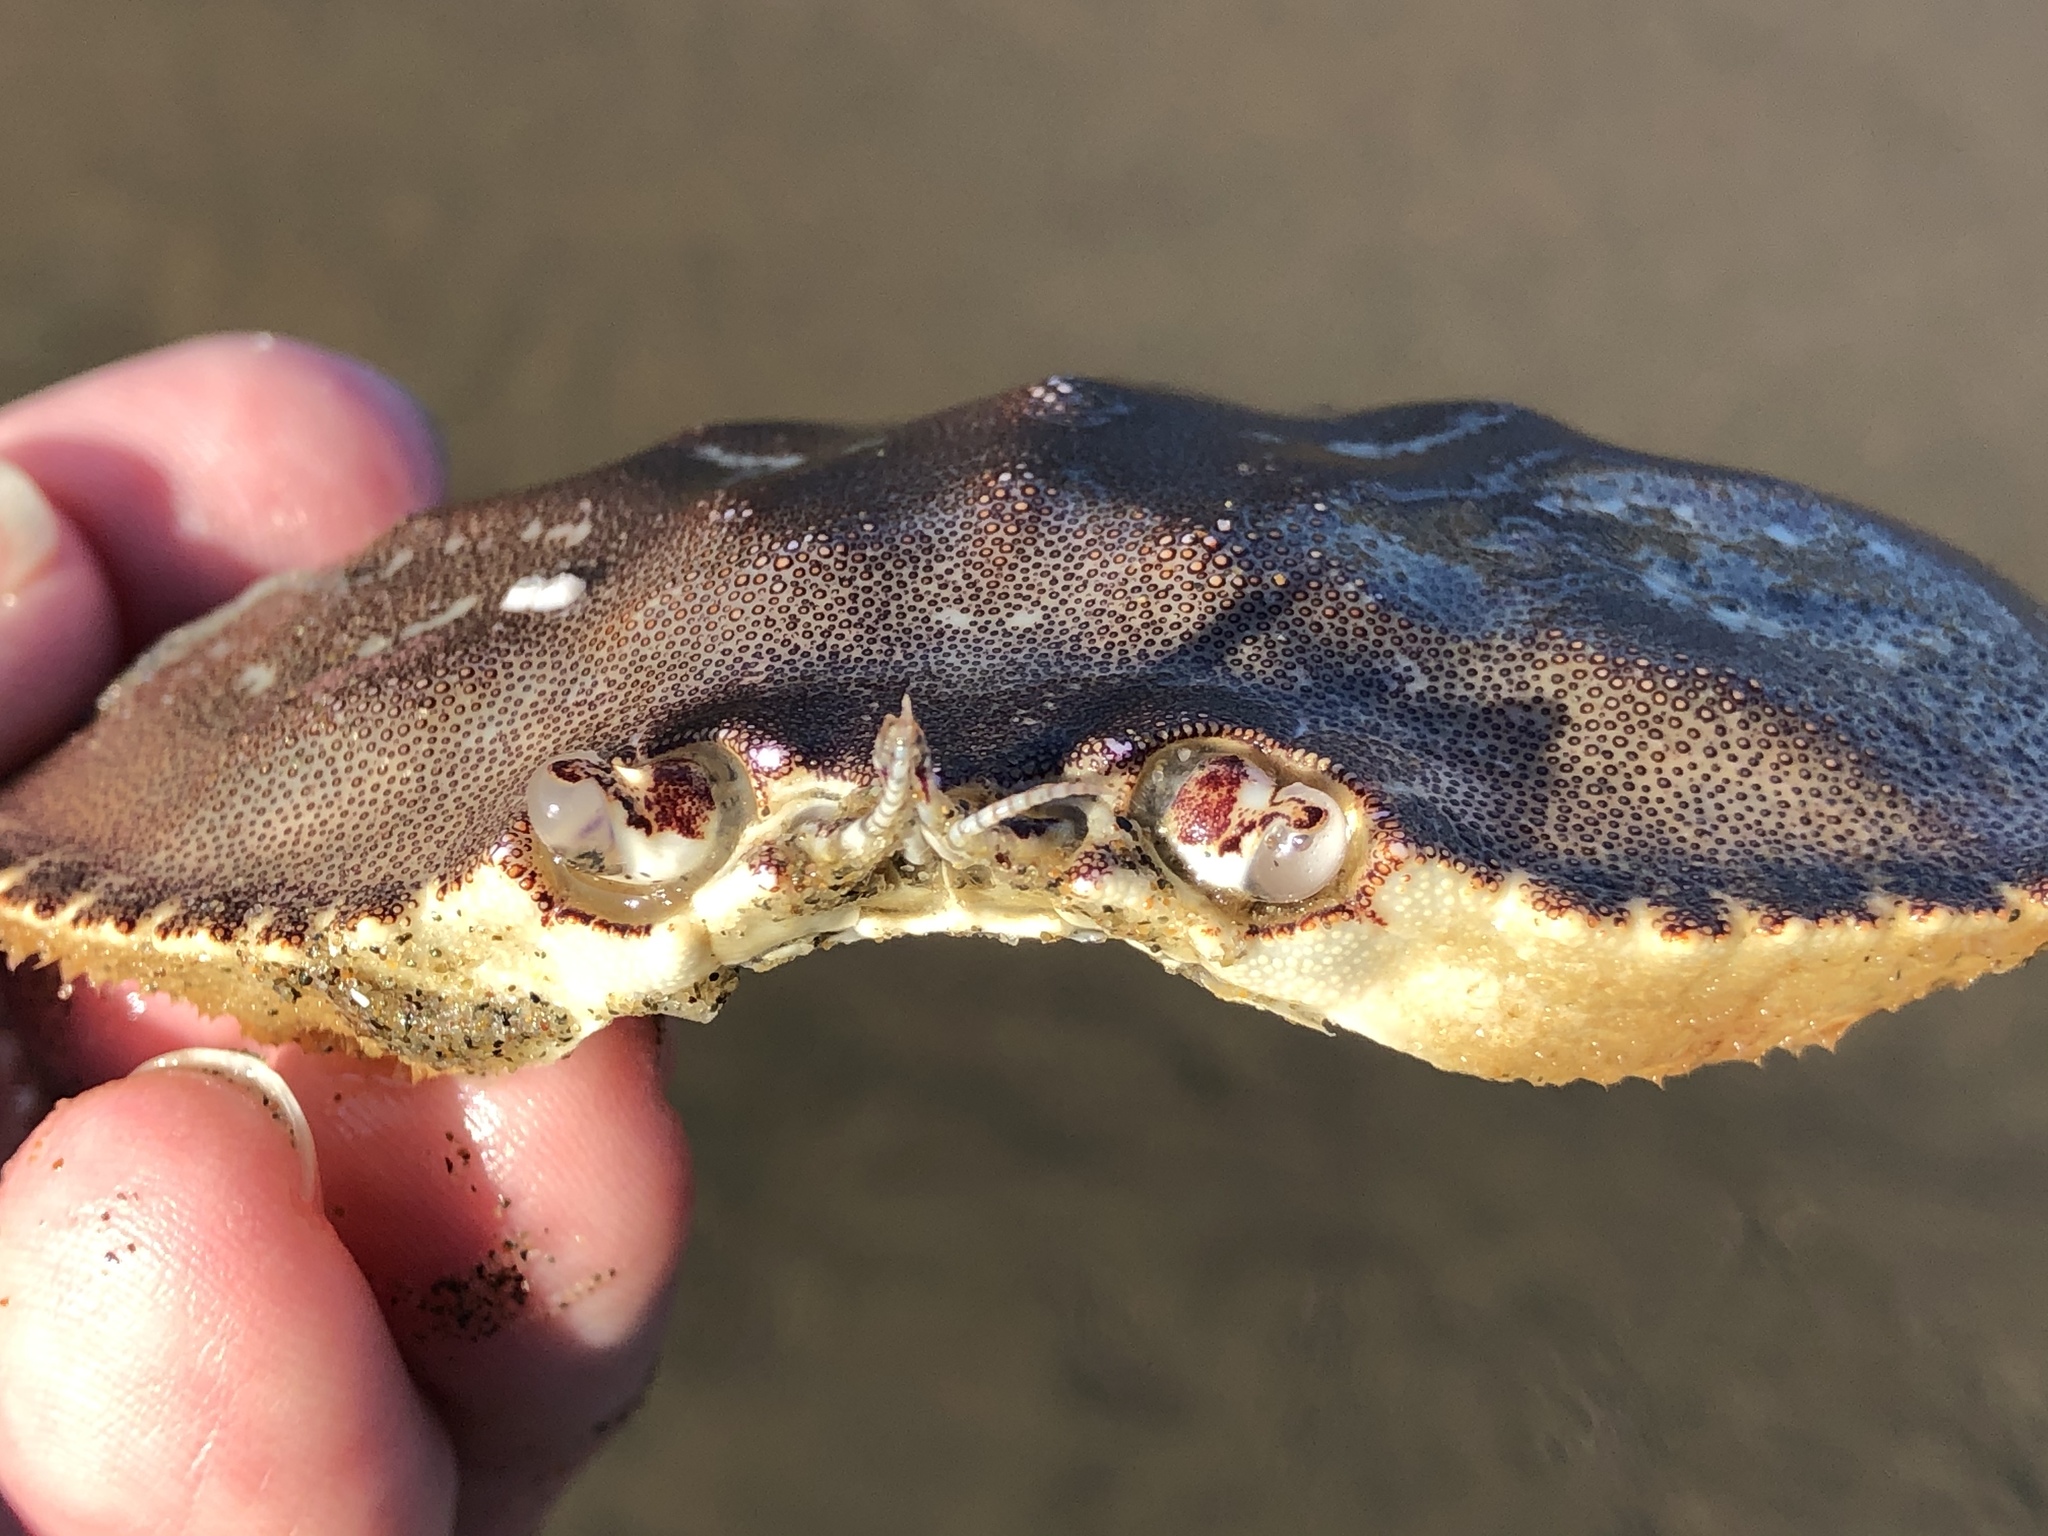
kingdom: Animalia
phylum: Arthropoda
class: Malacostraca
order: Decapoda
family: Cancridae
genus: Metacarcinus
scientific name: Metacarcinus magister
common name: Californian crab
